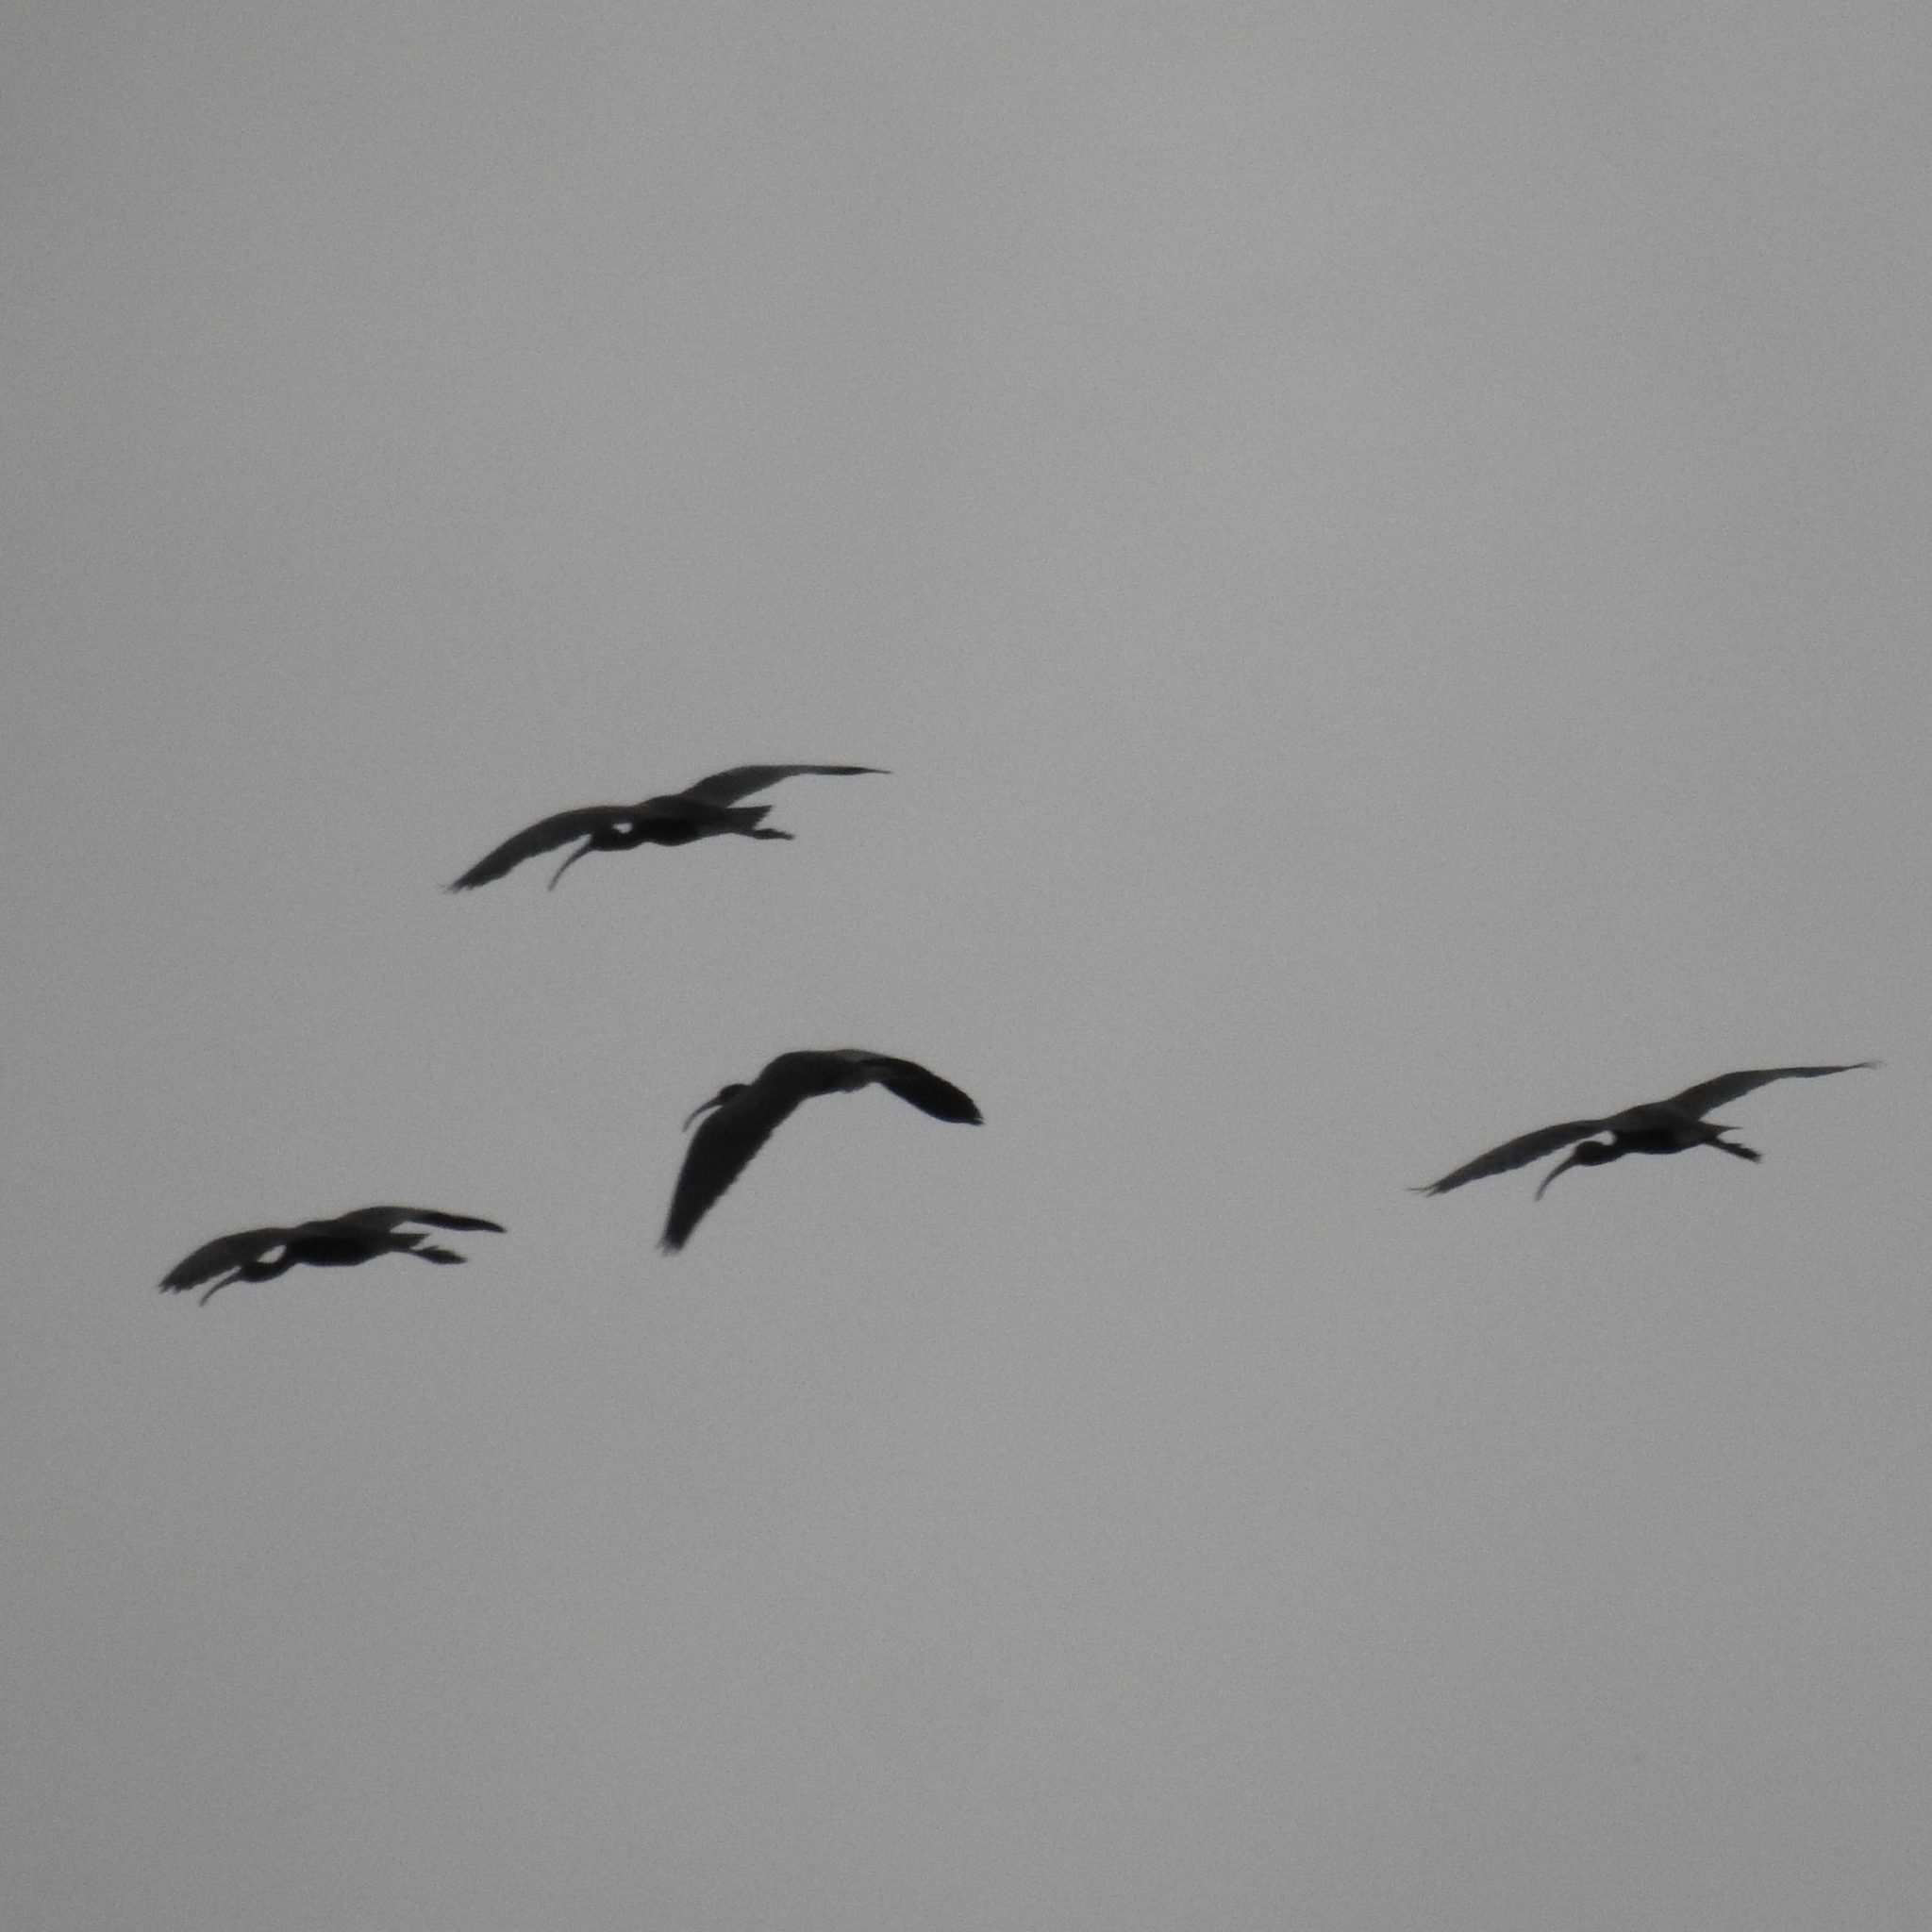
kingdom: Animalia
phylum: Chordata
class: Aves
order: Pelecaniformes
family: Threskiornithidae
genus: Plegadis
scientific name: Plegadis falcinellus
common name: Glossy ibis
